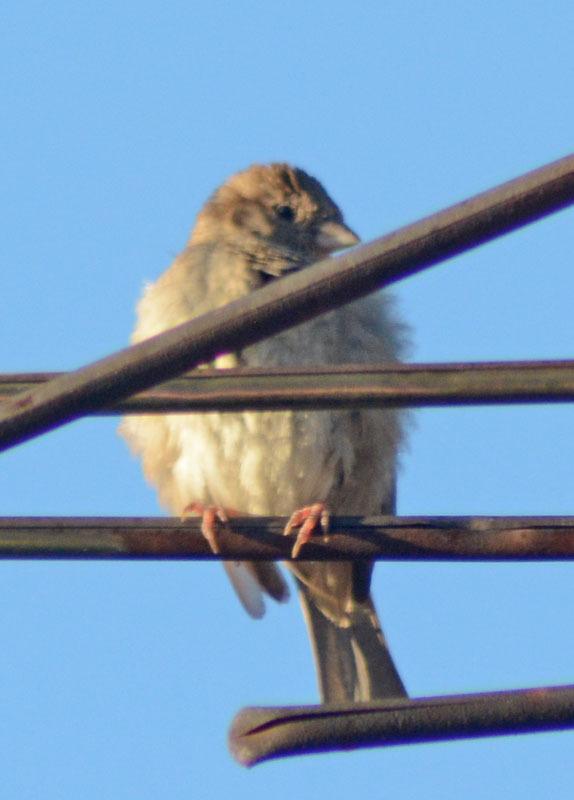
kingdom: Animalia
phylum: Chordata
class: Aves
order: Passeriformes
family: Passeridae
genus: Passer
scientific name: Passer domesticus
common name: House sparrow
